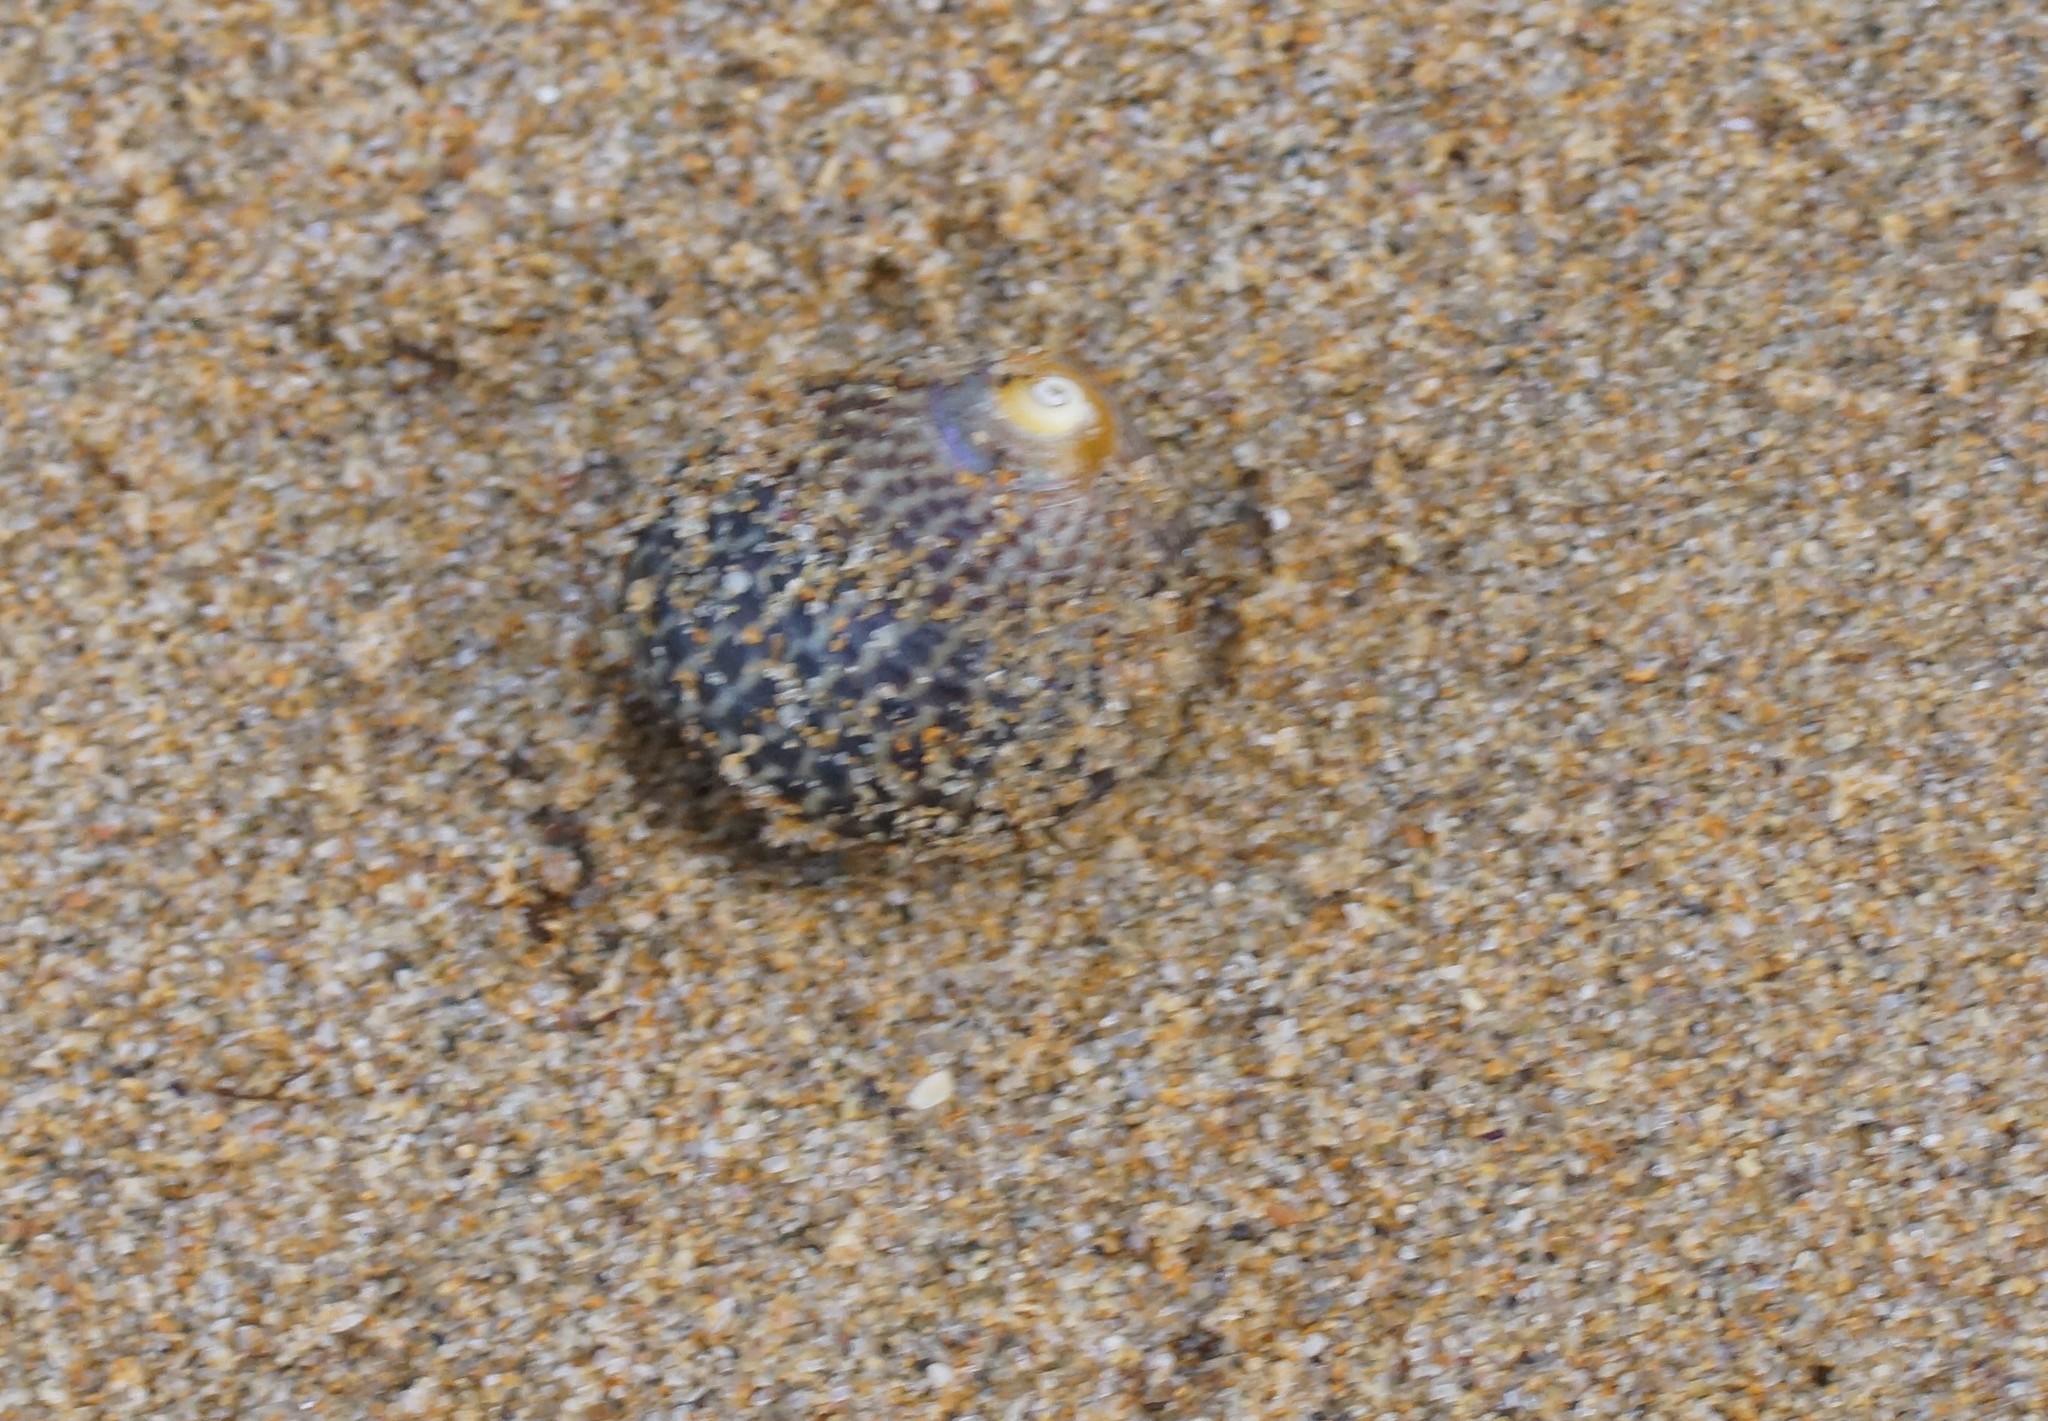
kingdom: Animalia
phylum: Mollusca
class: Gastropoda
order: Trochida
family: Trochidae
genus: Chlorodiloma
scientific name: Chlorodiloma adelaidae
